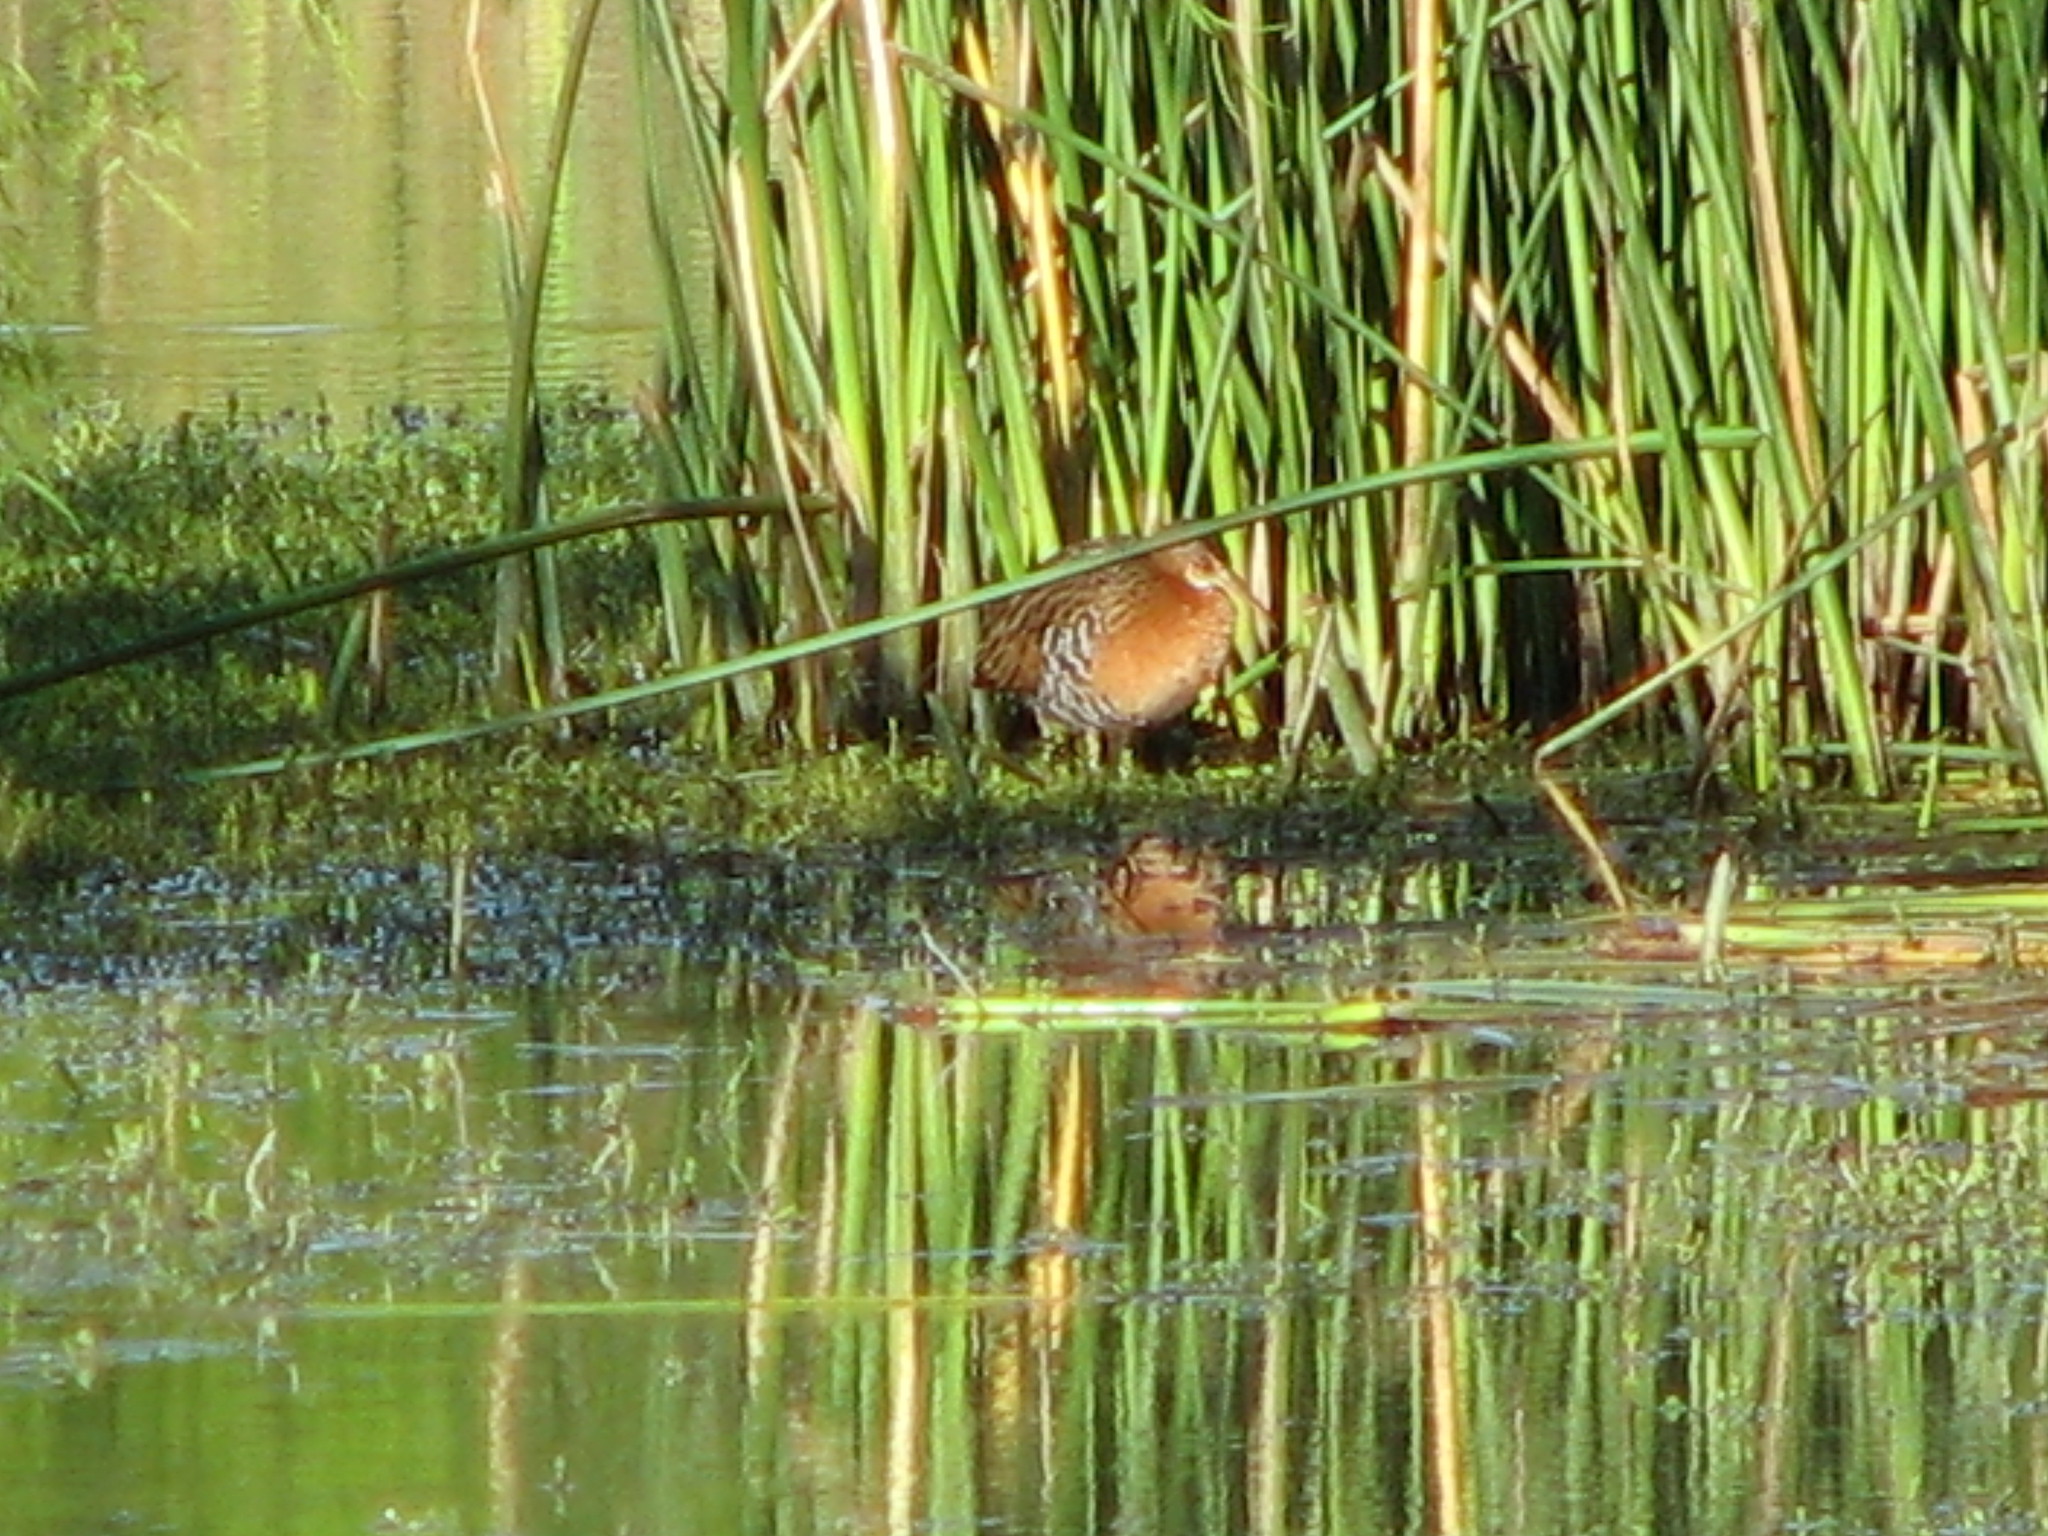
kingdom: Animalia
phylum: Chordata
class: Aves
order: Gruiformes
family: Rallidae
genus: Rallus
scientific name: Rallus elegans
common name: King rail
